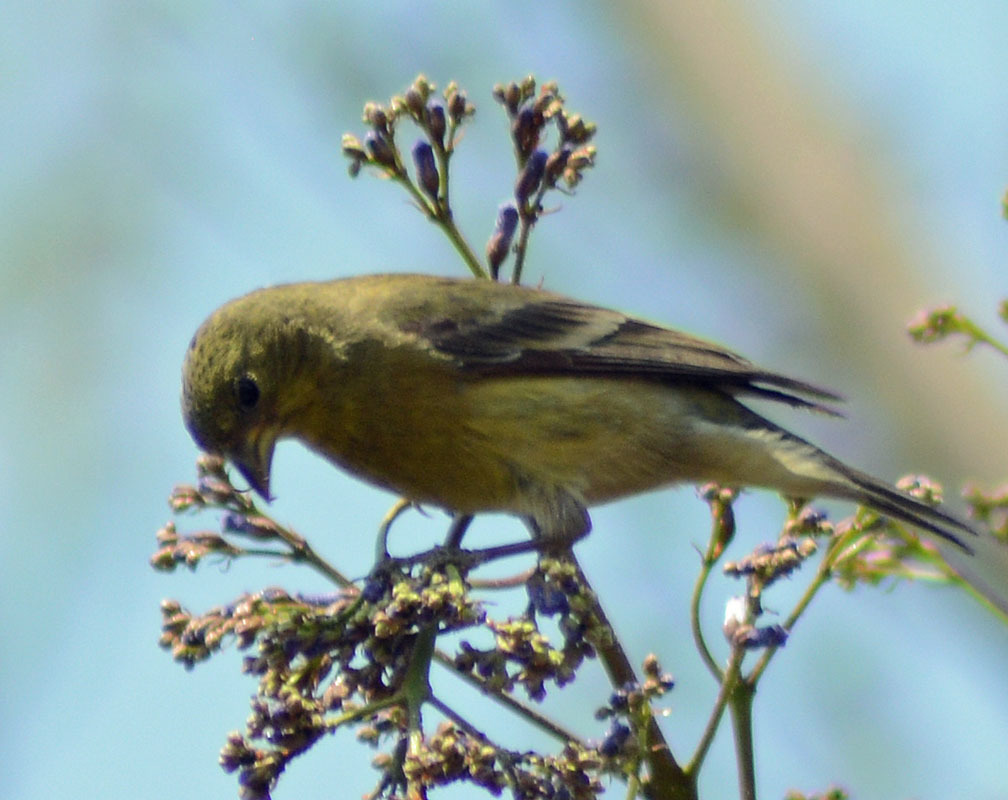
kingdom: Animalia
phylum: Chordata
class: Aves
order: Passeriformes
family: Fringillidae
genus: Spinus
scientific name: Spinus psaltria
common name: Lesser goldfinch
